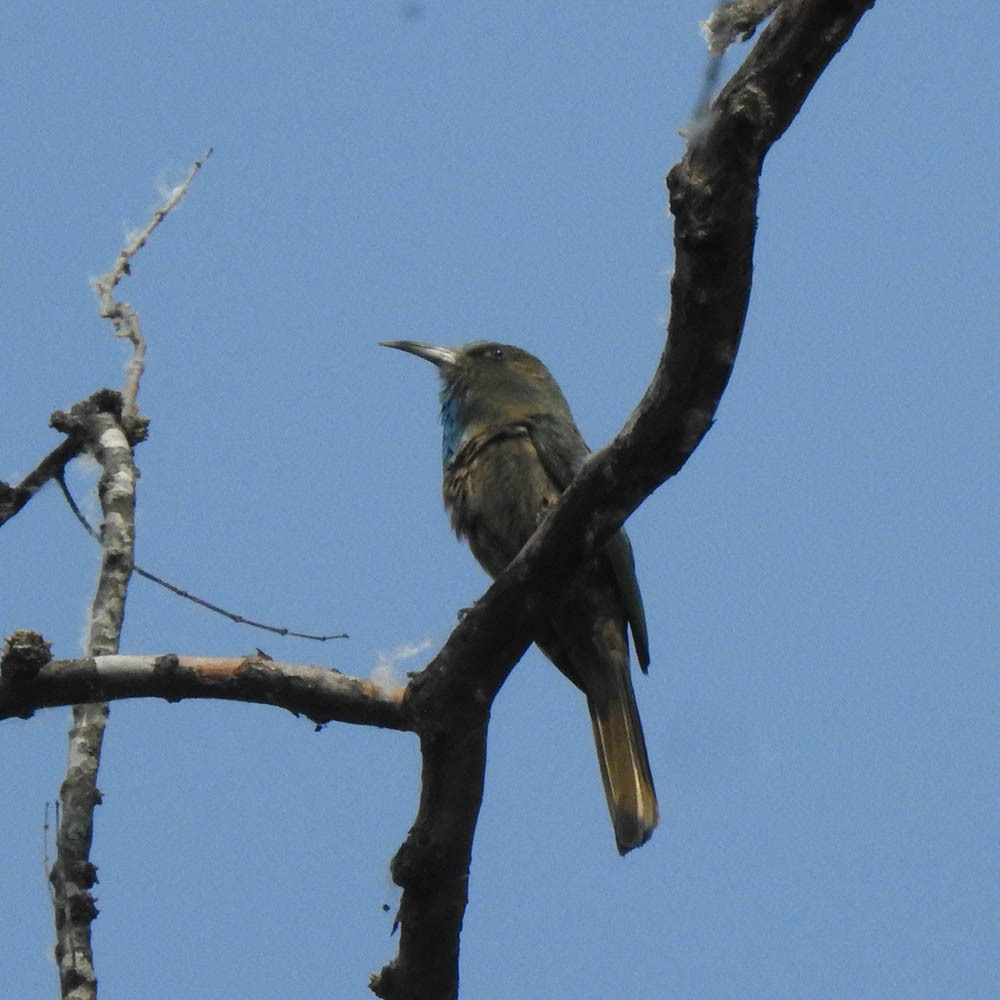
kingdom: Animalia
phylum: Chordata
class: Aves
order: Coraciiformes
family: Meropidae
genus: Nyctyornis
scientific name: Nyctyornis athertoni
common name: Blue-bearded bee-eater
